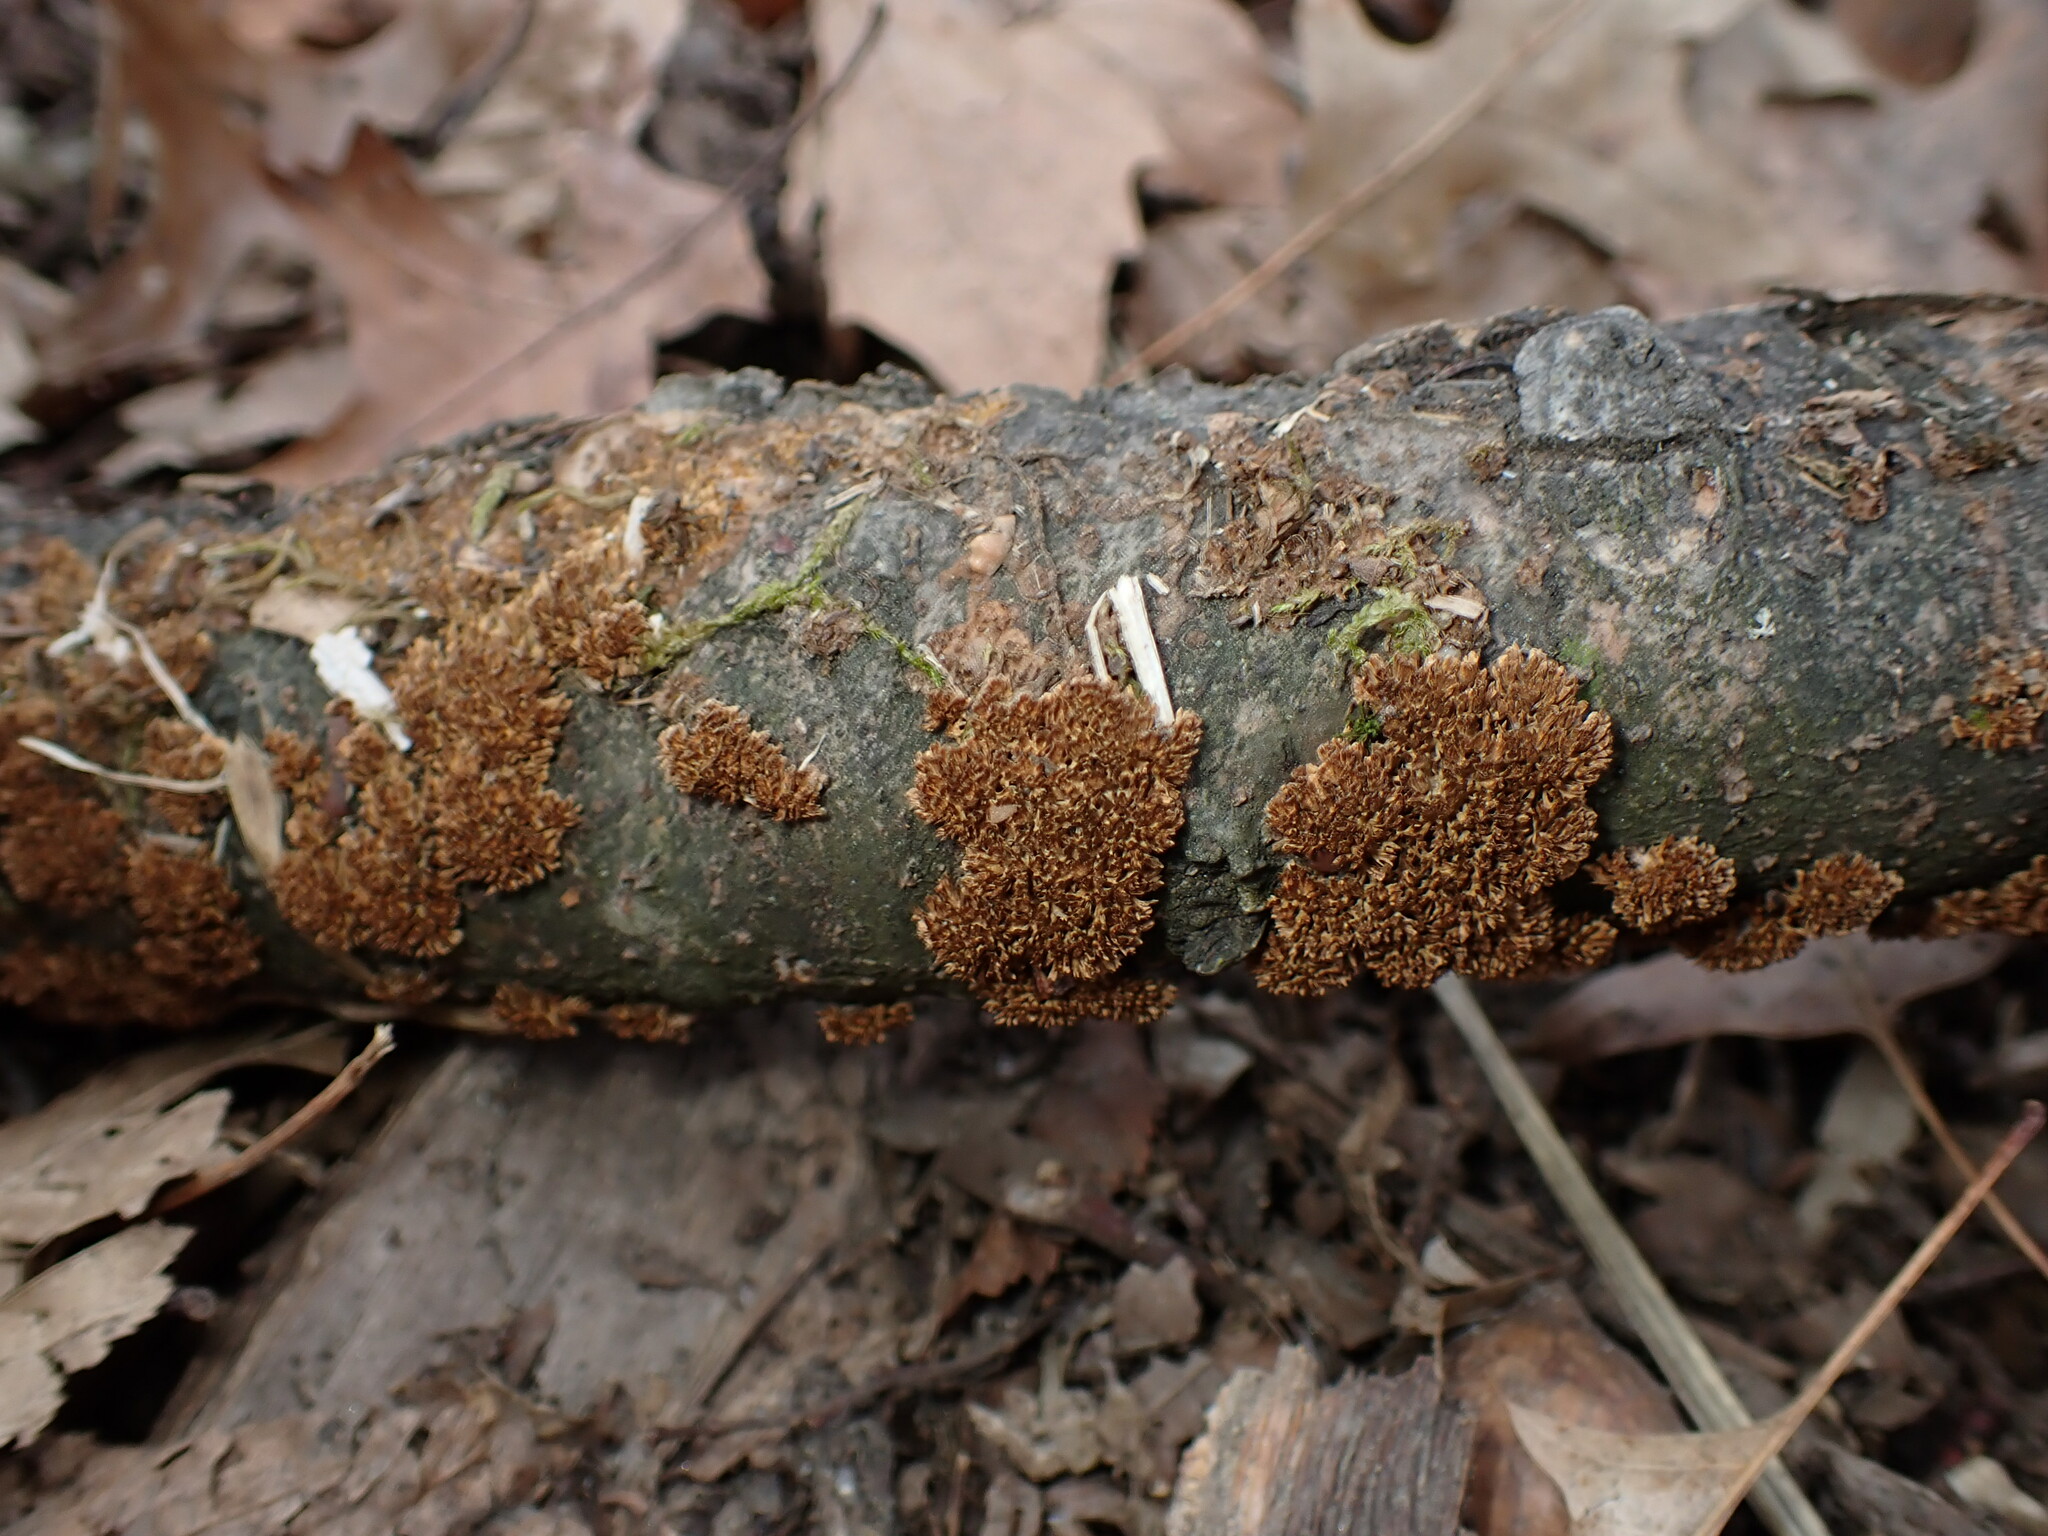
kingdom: Fungi
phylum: Basidiomycota
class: Agaricomycetes
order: Hymenochaetales
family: Hymenochaetaceae
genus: Hydnoporia
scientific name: Hydnoporia olivacea
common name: Brown-toothed crust fungus
